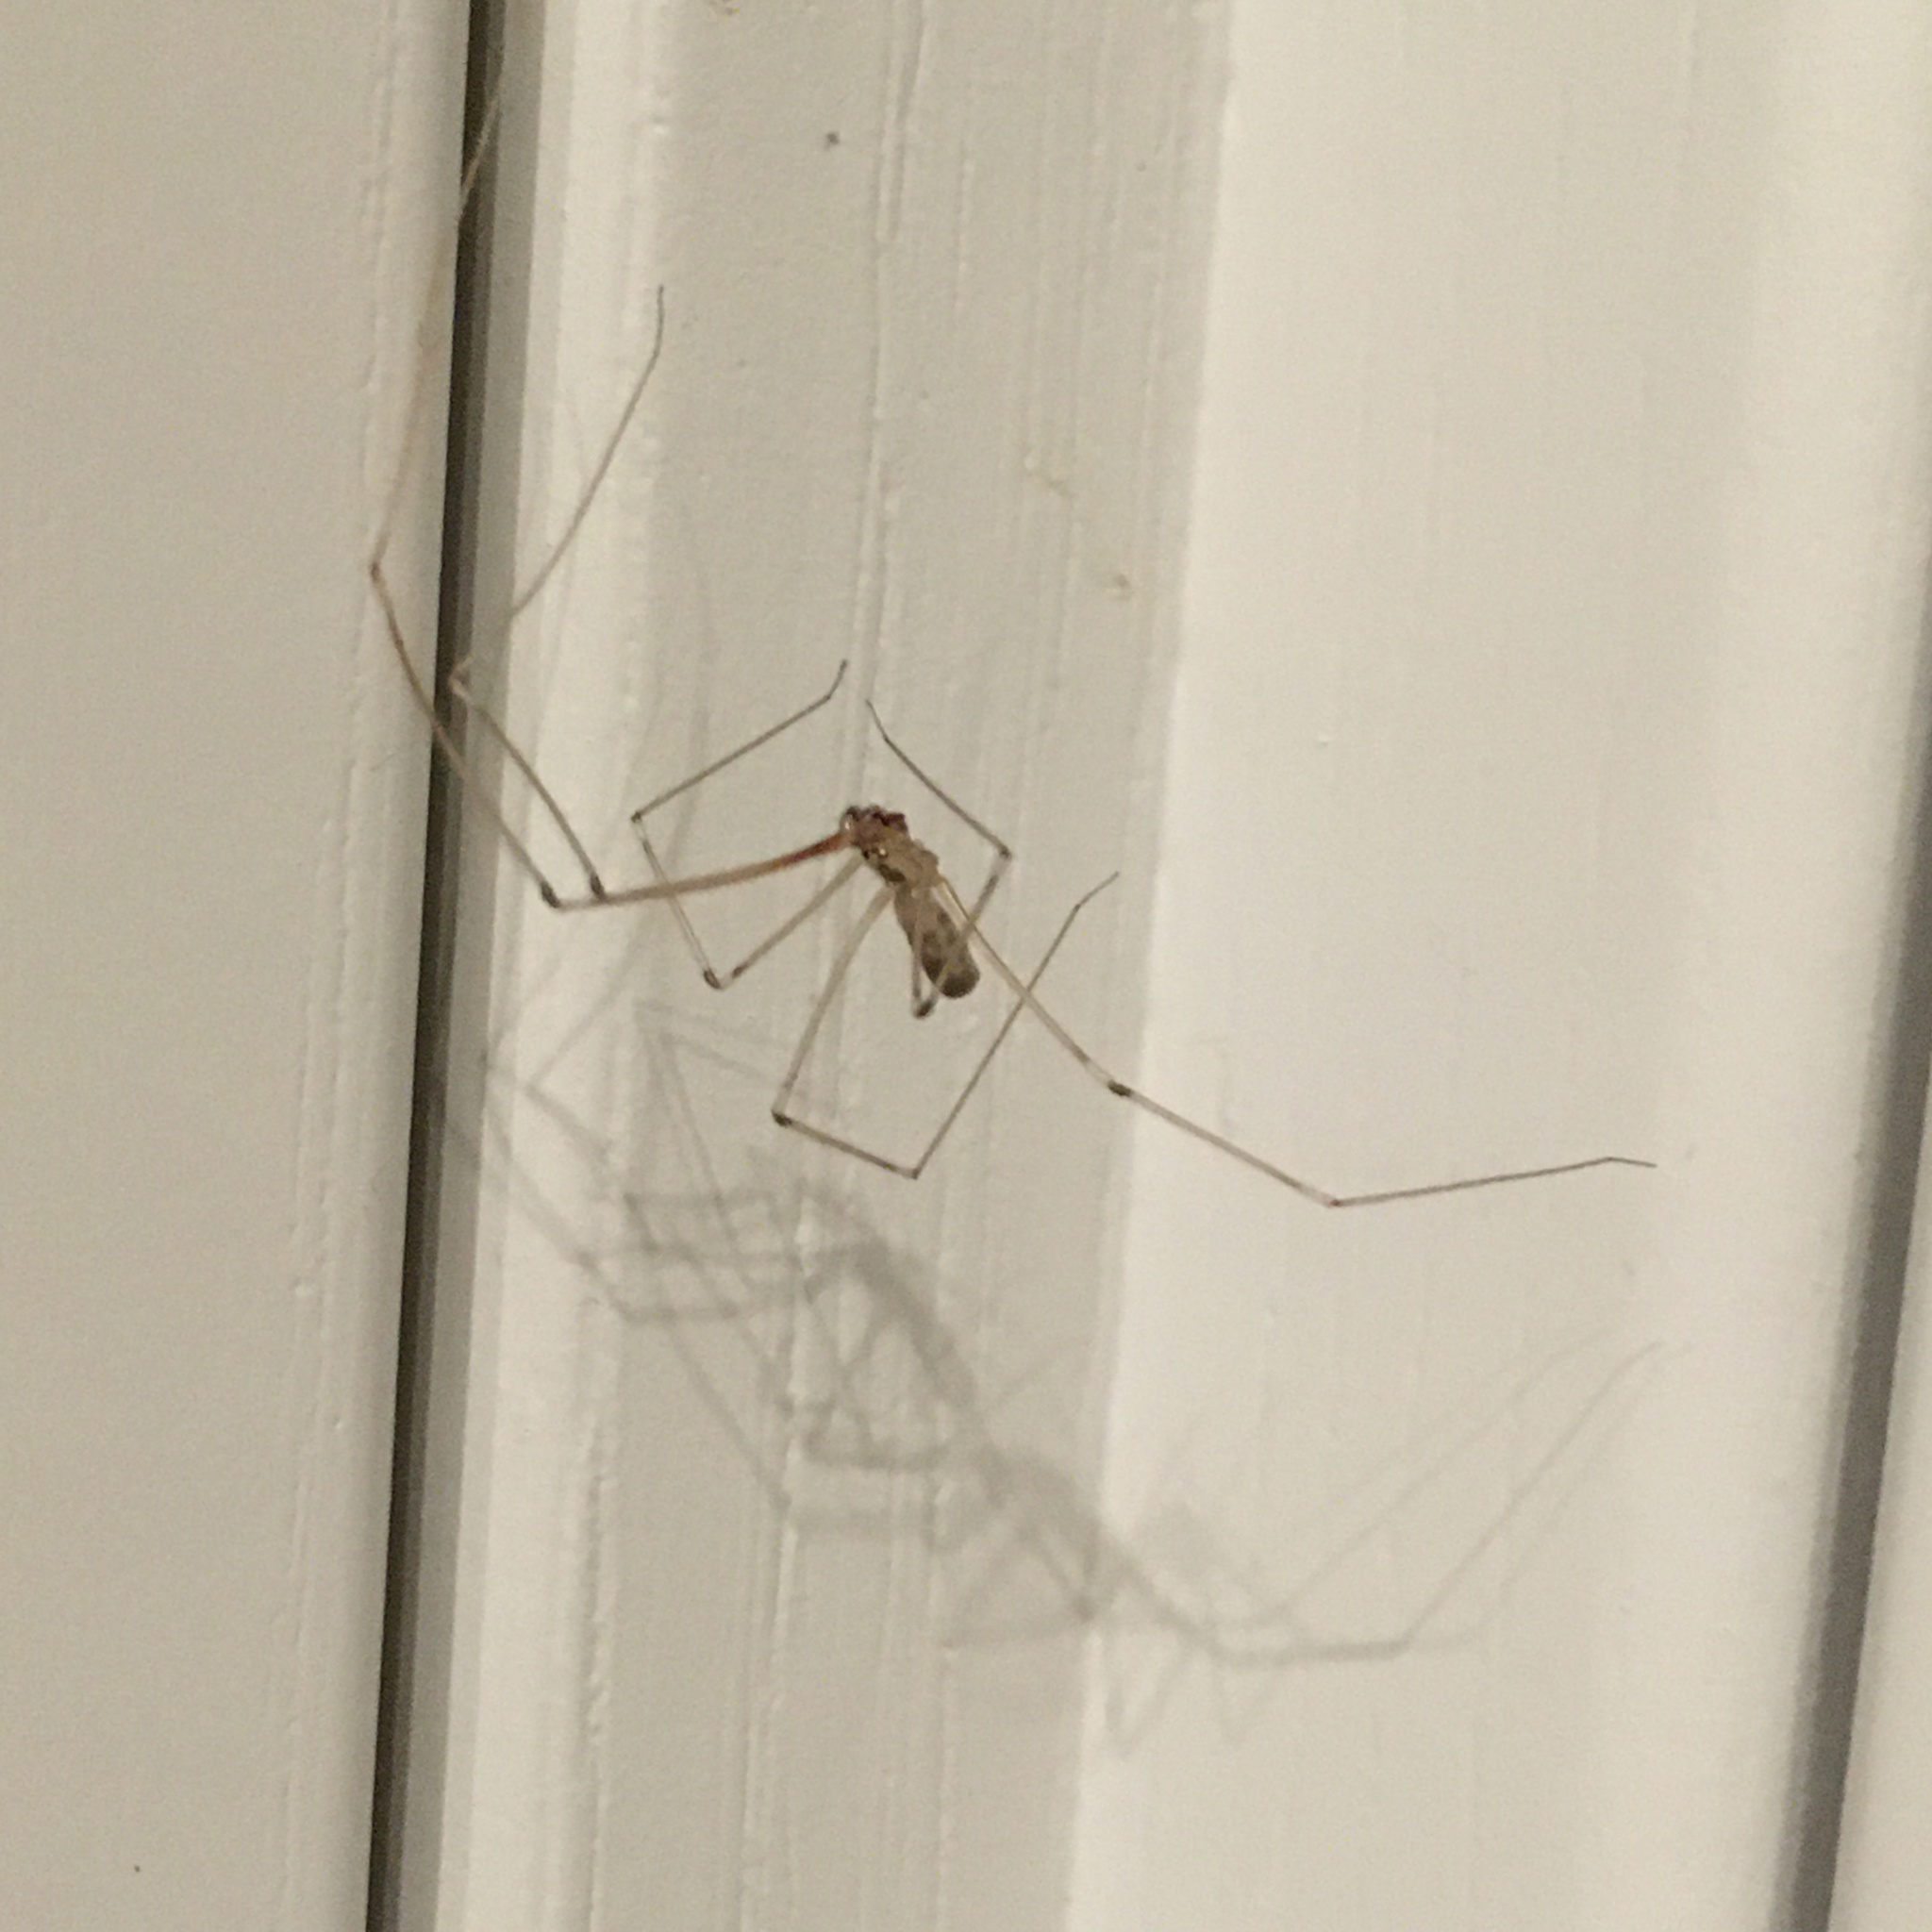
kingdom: Animalia
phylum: Arthropoda
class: Arachnida
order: Araneae
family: Pholcidae
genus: Pholcus
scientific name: Pholcus phalangioides
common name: Longbodied cellar spider
